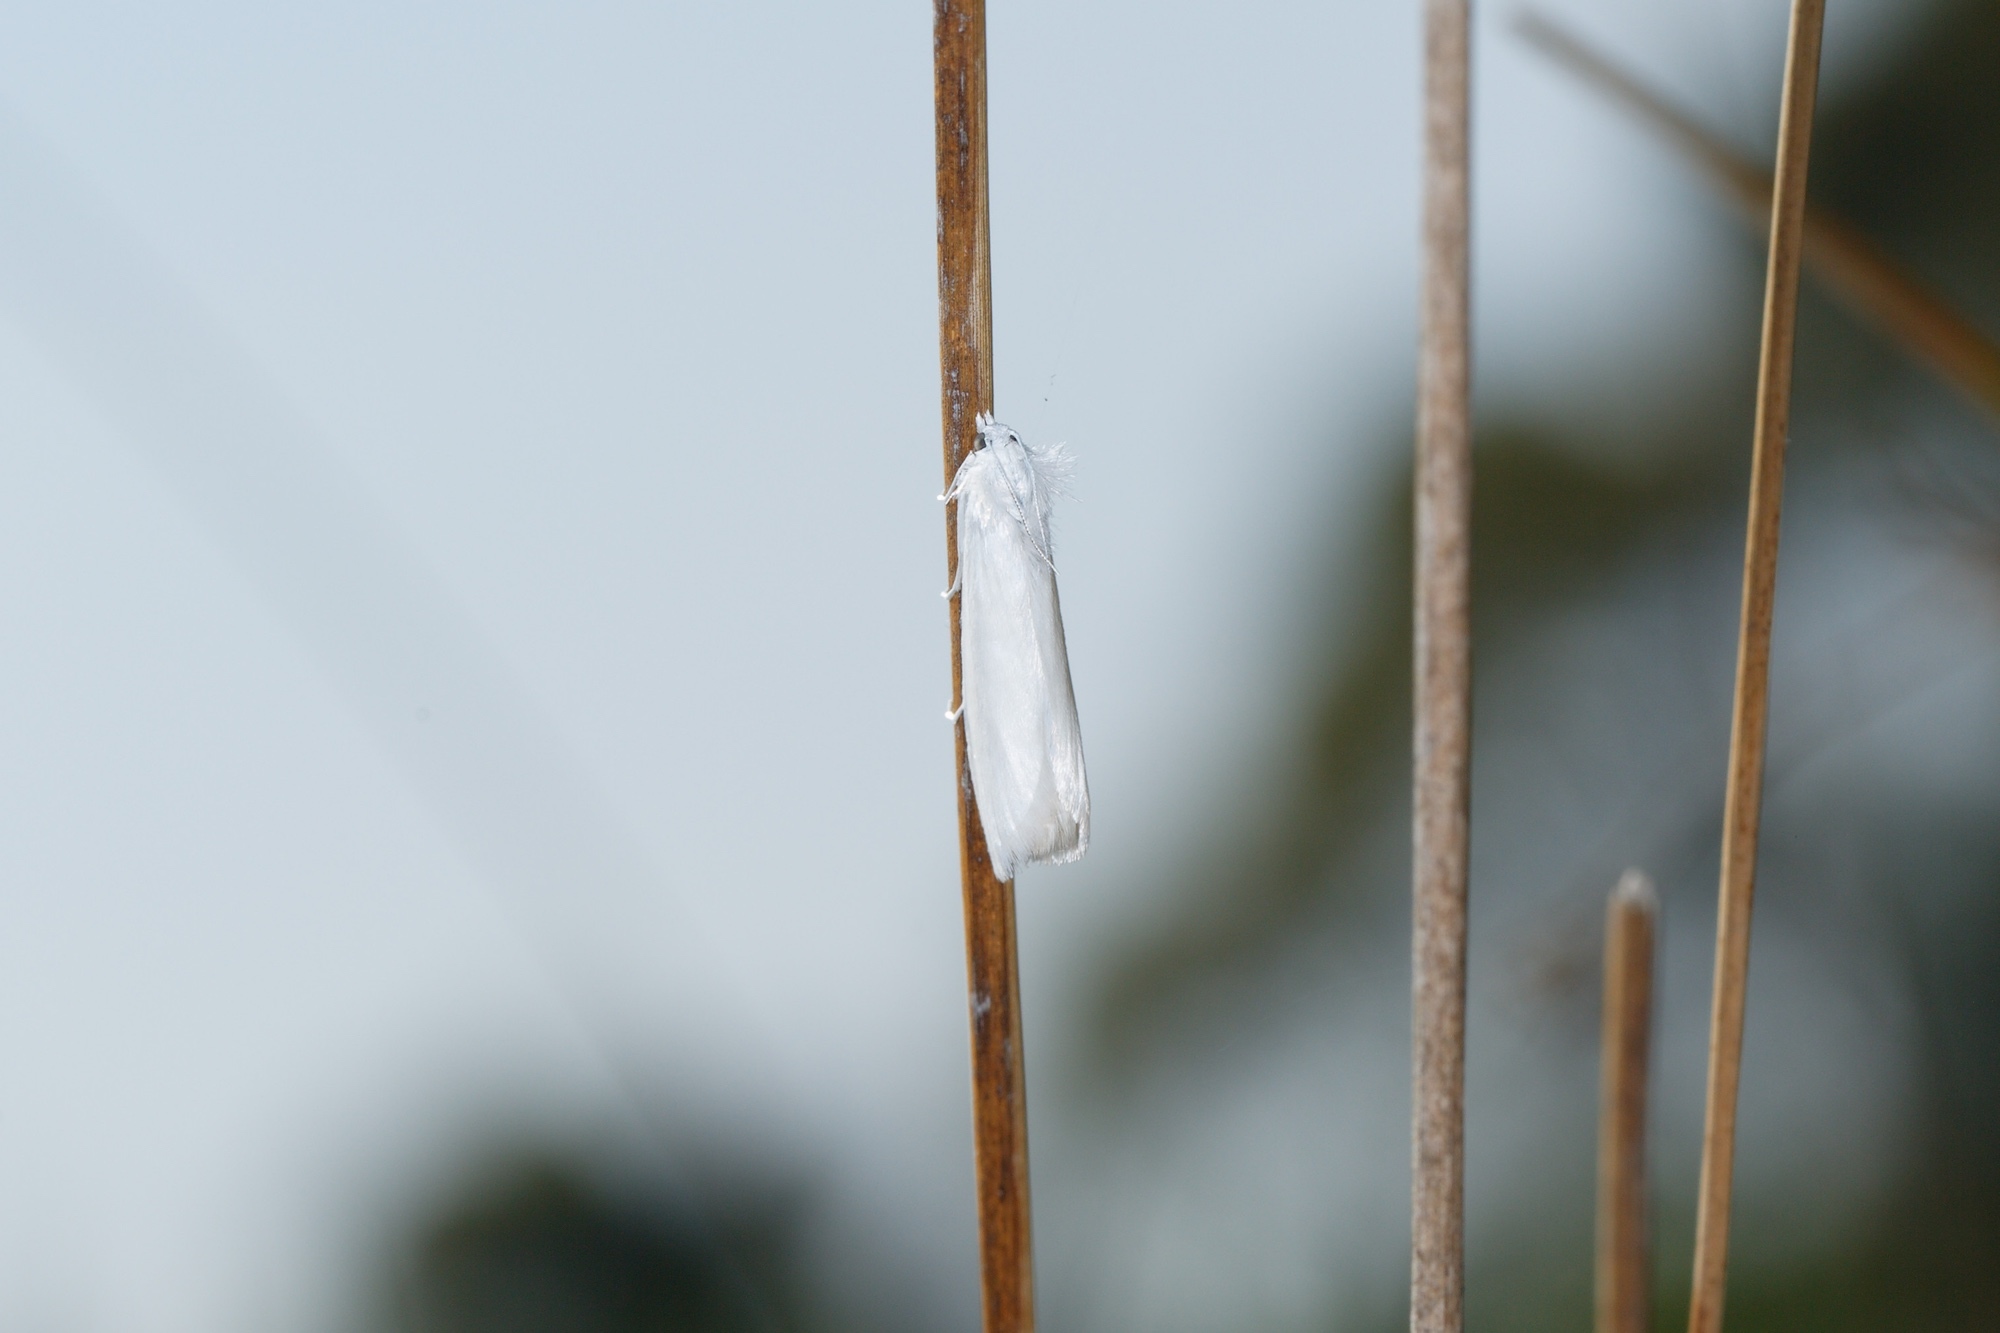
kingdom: Animalia
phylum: Arthropoda
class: Insecta
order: Lepidoptera
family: Crambidae
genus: Tipanaea
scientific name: Tipanaea patulella
